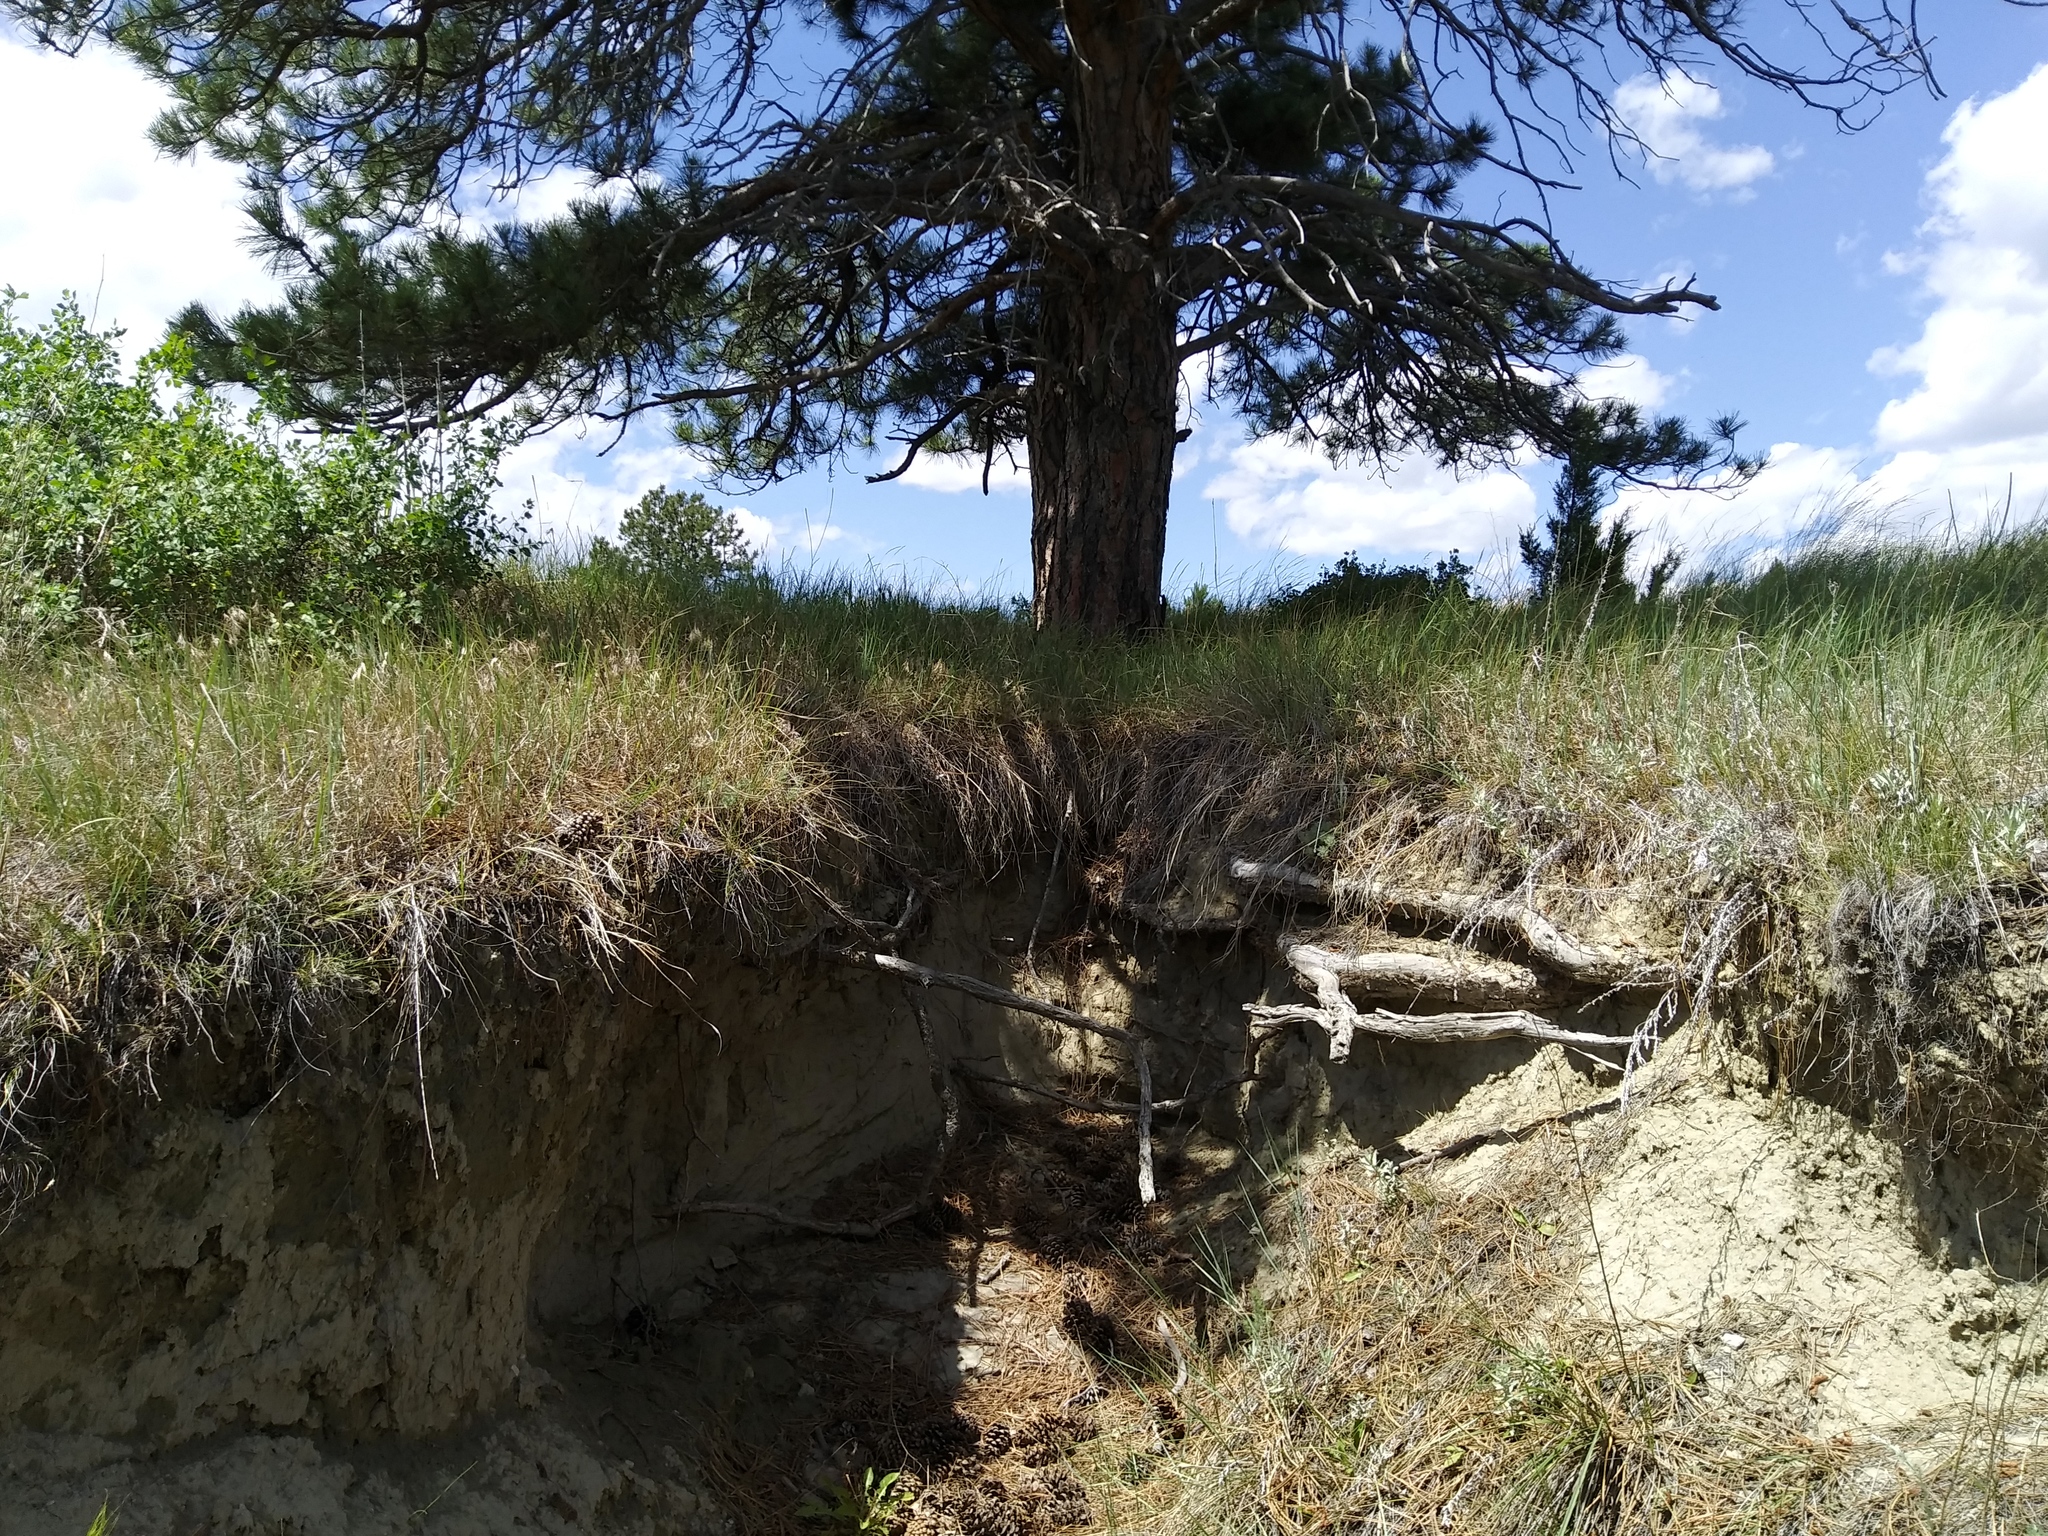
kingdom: Plantae
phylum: Tracheophyta
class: Pinopsida
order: Pinales
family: Pinaceae
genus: Pinus
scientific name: Pinus ponderosa
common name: Western yellow-pine
